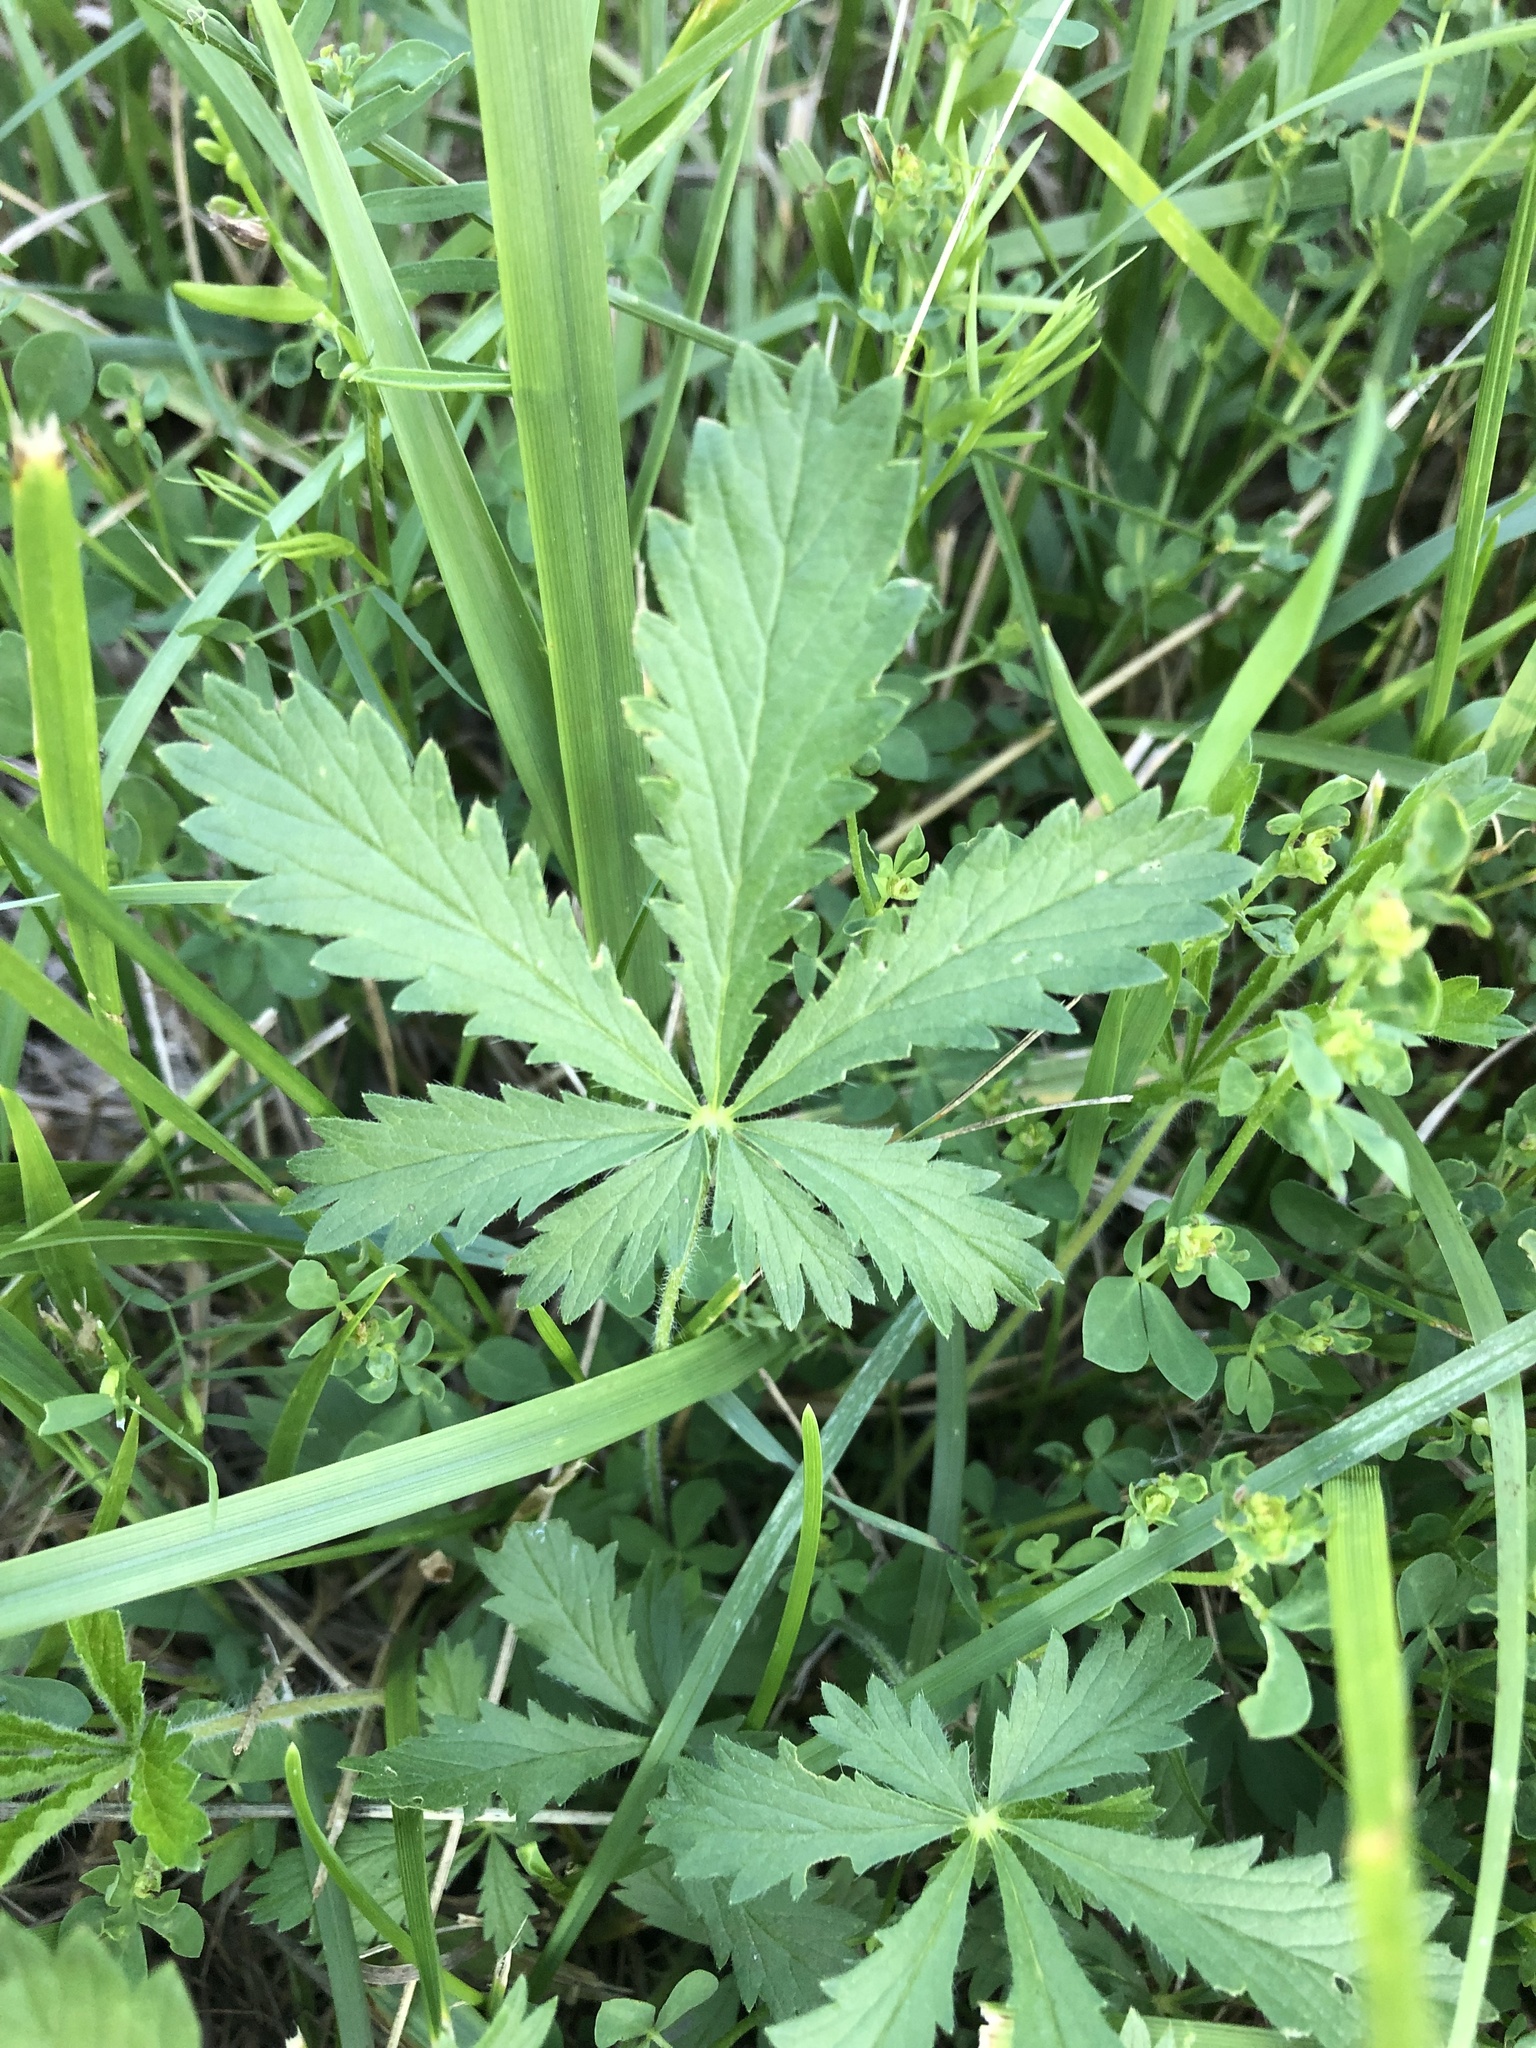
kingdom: Plantae
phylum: Tracheophyta
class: Magnoliopsida
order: Rosales
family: Rosaceae
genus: Potentilla
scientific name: Potentilla recta
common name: Sulphur cinquefoil
